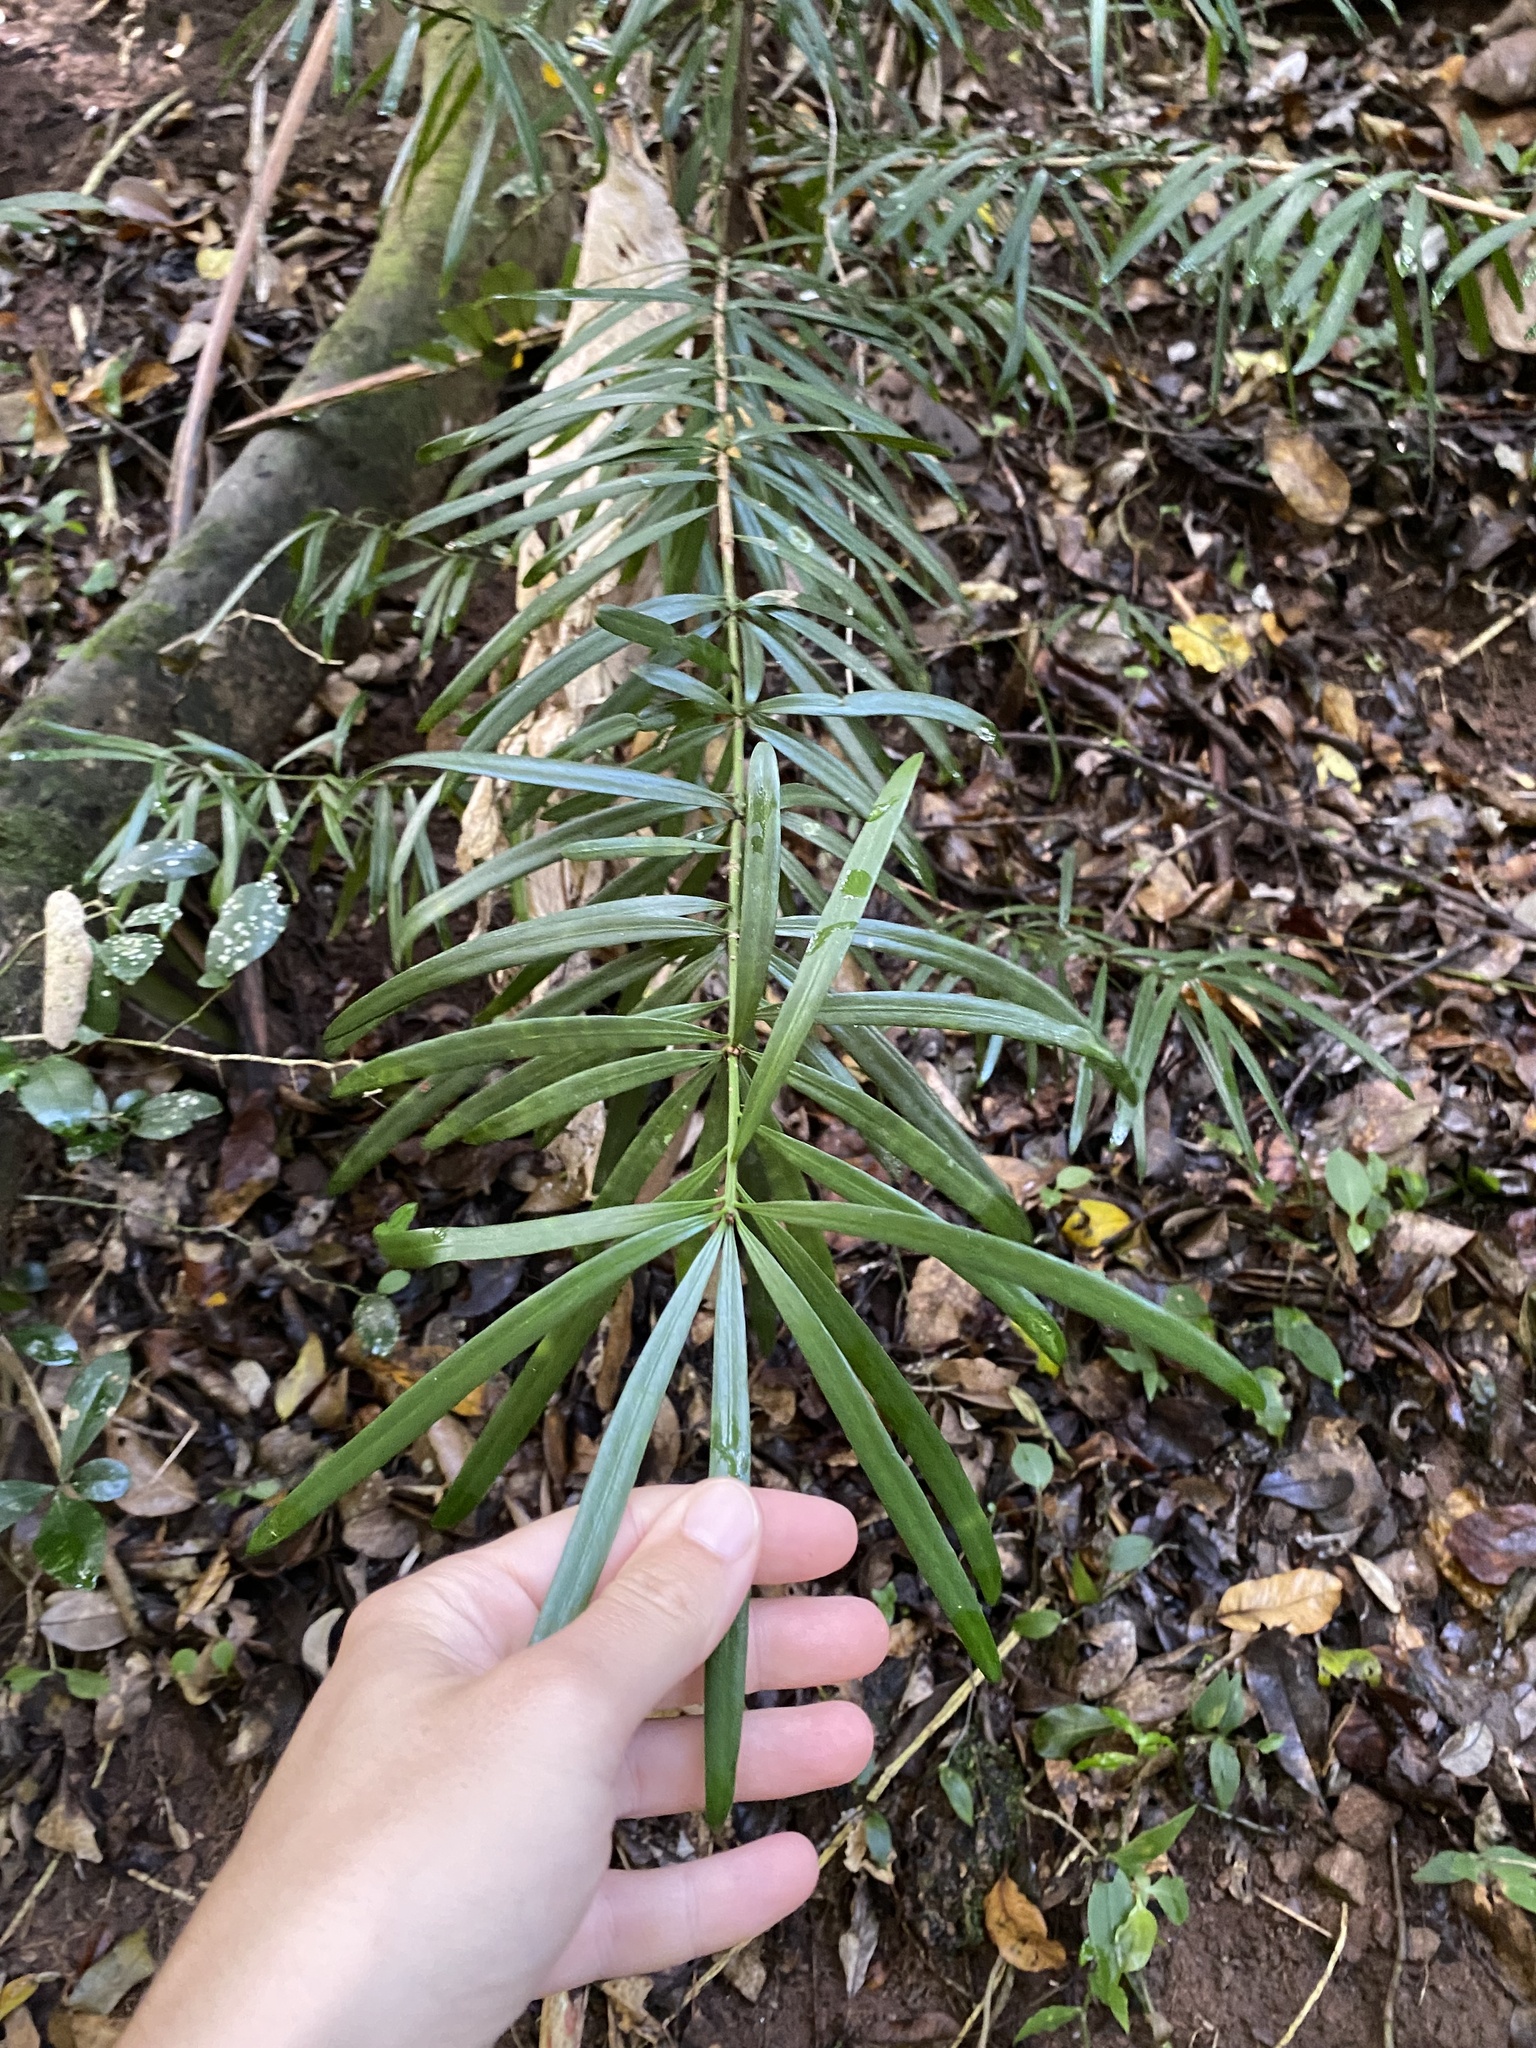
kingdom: Plantae
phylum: Tracheophyta
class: Pinopsida
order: Pinales
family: Podocarpaceae
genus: Podocarpus
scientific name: Podocarpus henkelii
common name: Henkel's yellowwood
